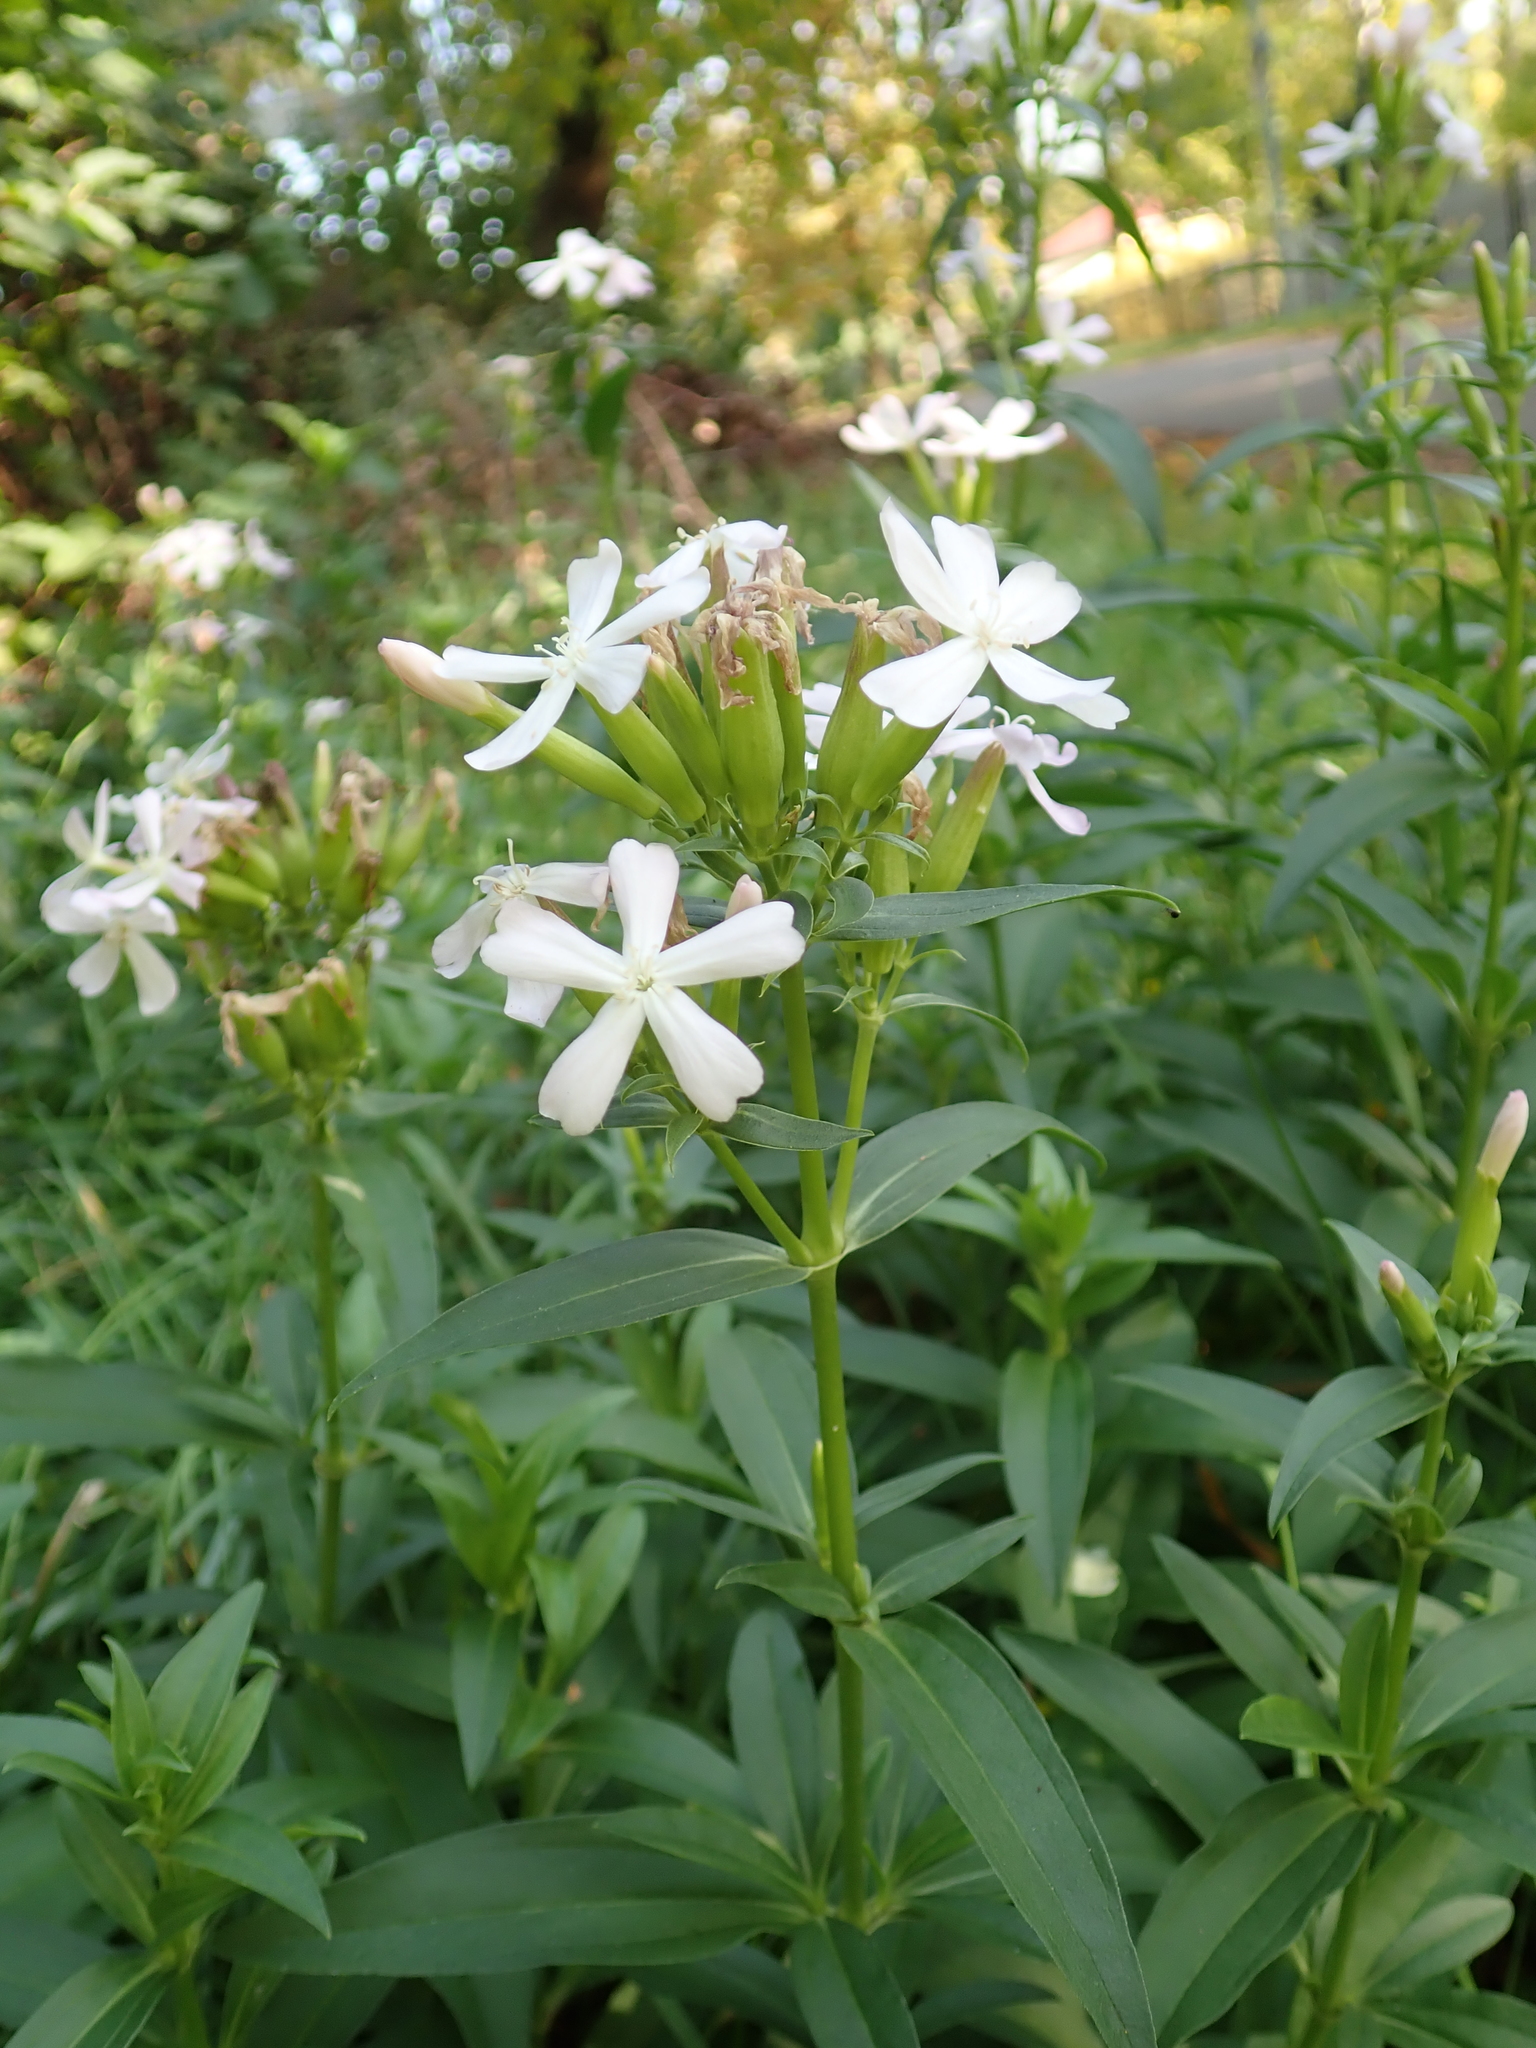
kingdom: Plantae
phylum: Tracheophyta
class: Magnoliopsida
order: Caryophyllales
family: Caryophyllaceae
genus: Saponaria
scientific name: Saponaria officinalis
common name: Soapwort
